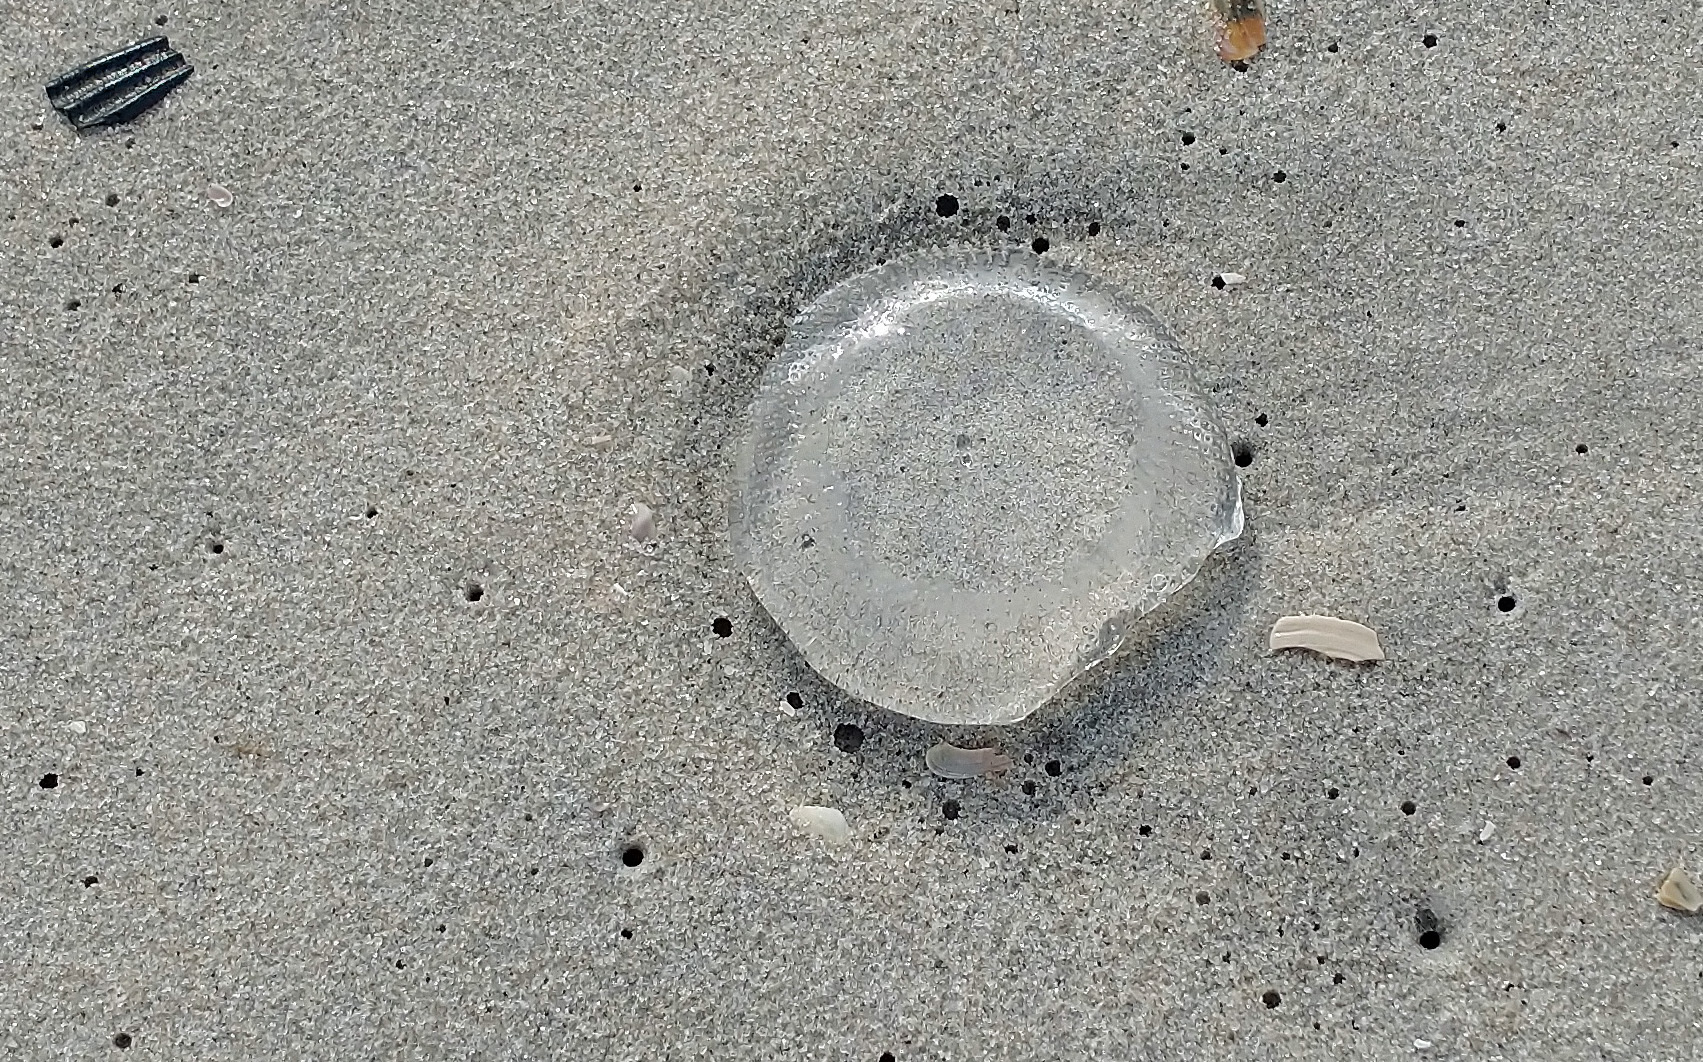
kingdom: Animalia
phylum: Cnidaria
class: Hydrozoa
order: Leptothecata
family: Aequoreidae
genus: Rhacostoma
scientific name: Rhacostoma atlanticum
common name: Lined water jelly
